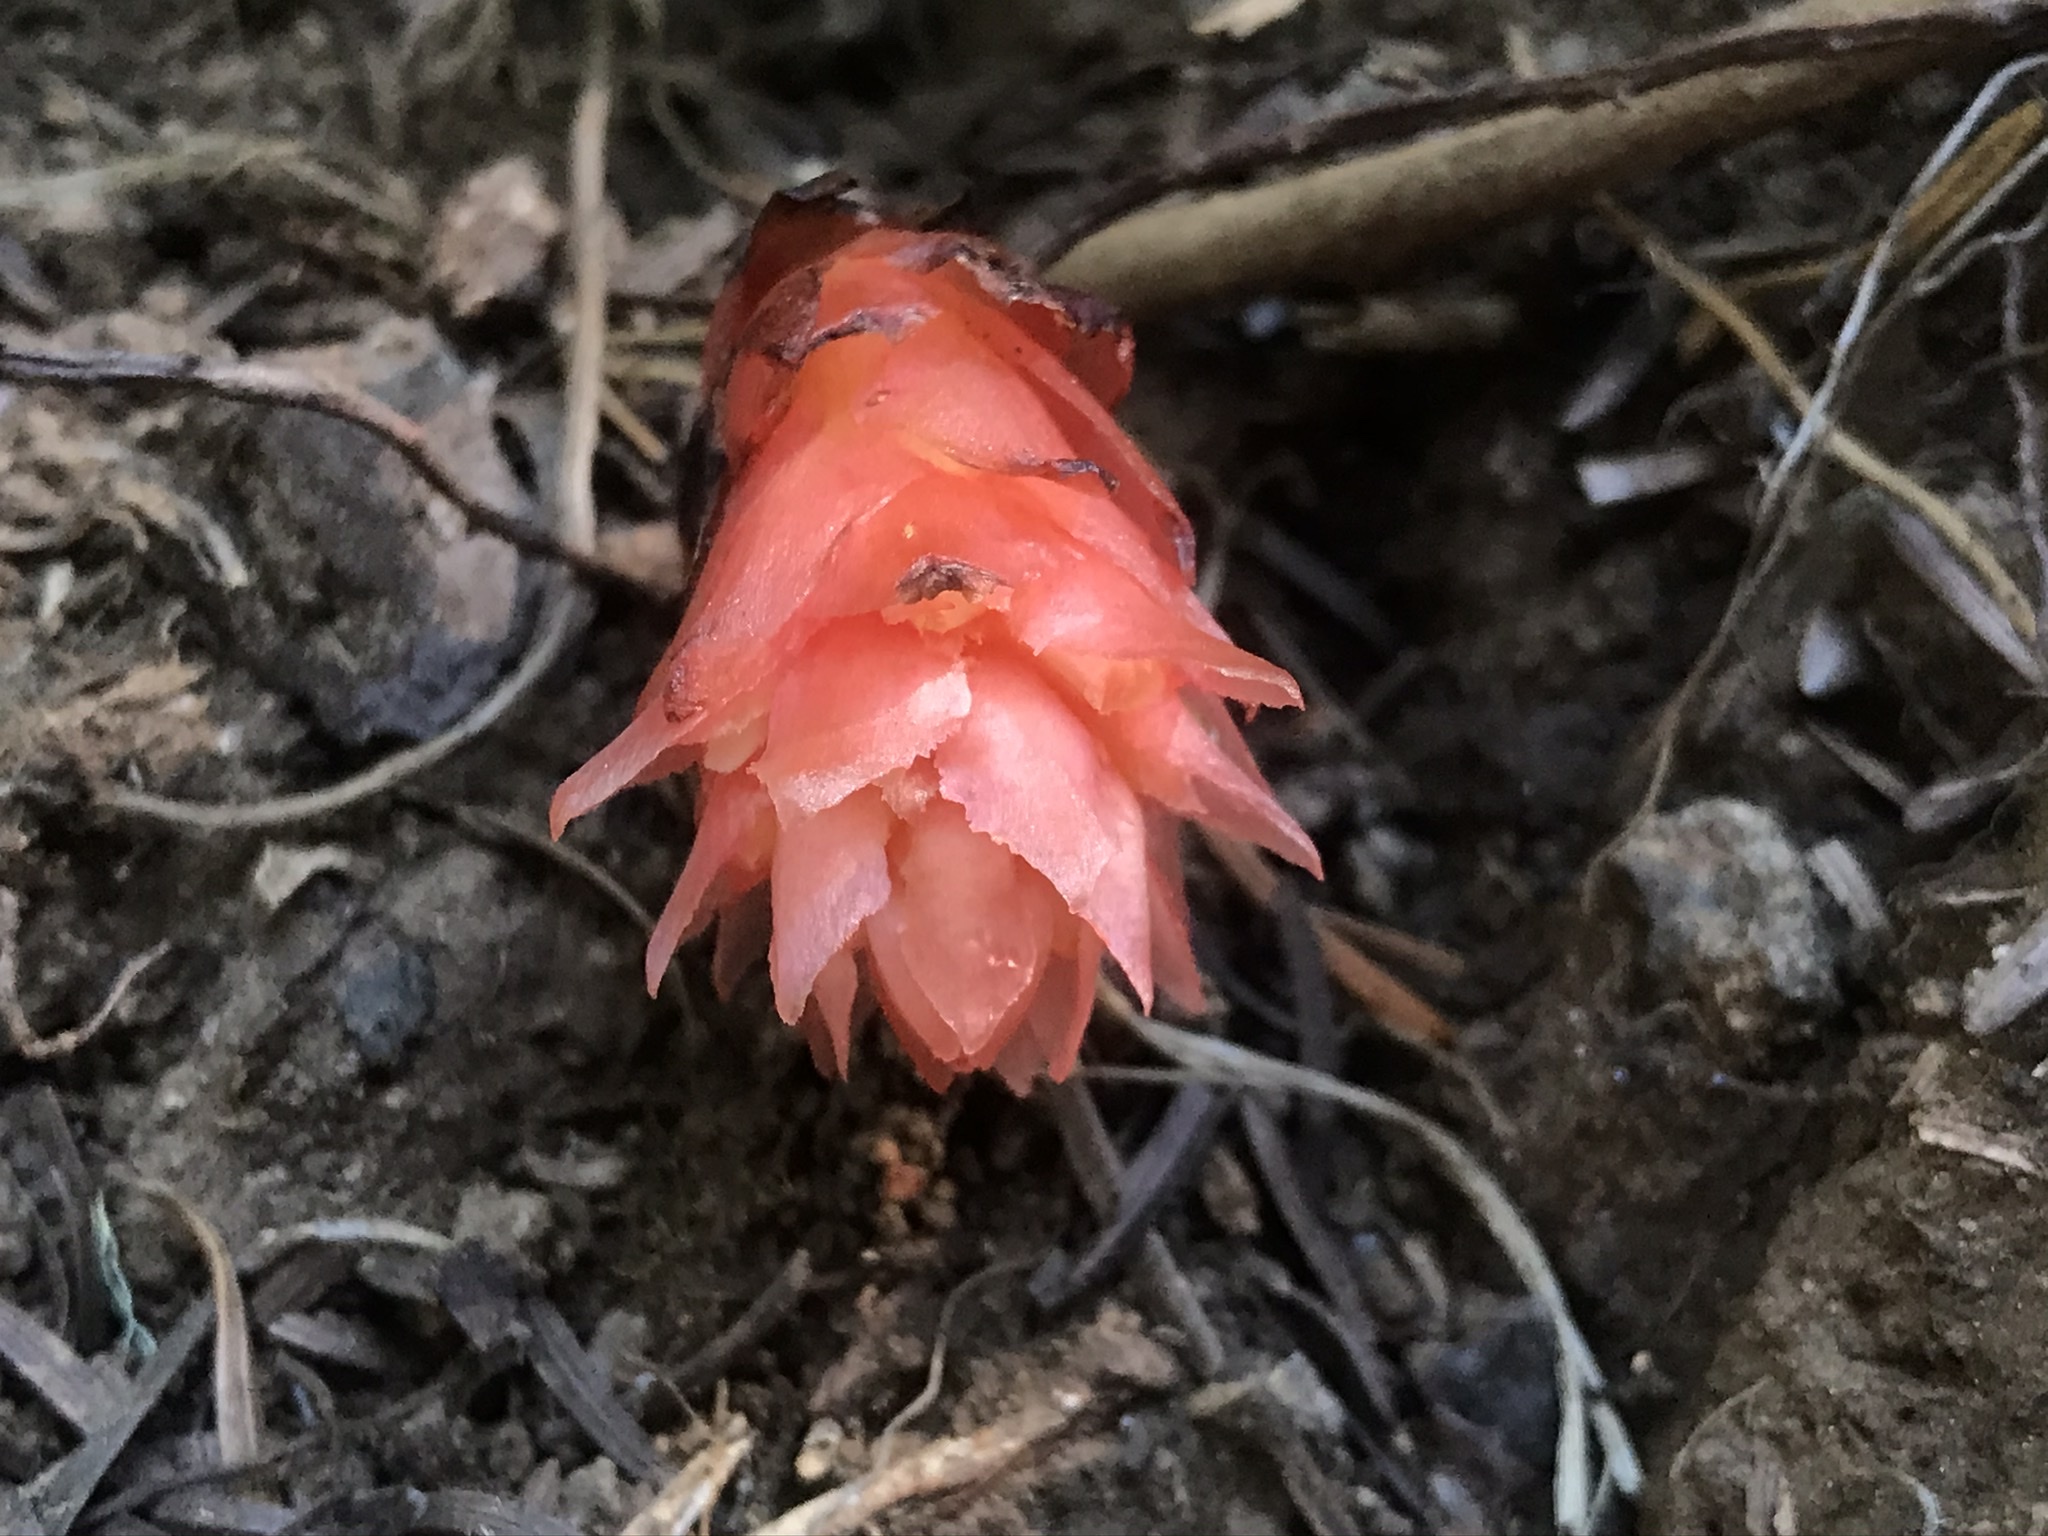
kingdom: Plantae
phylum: Tracheophyta
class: Magnoliopsida
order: Ericales
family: Ericaceae
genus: Hypopitys
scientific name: Hypopitys monotropa
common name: Yellow bird's-nest
